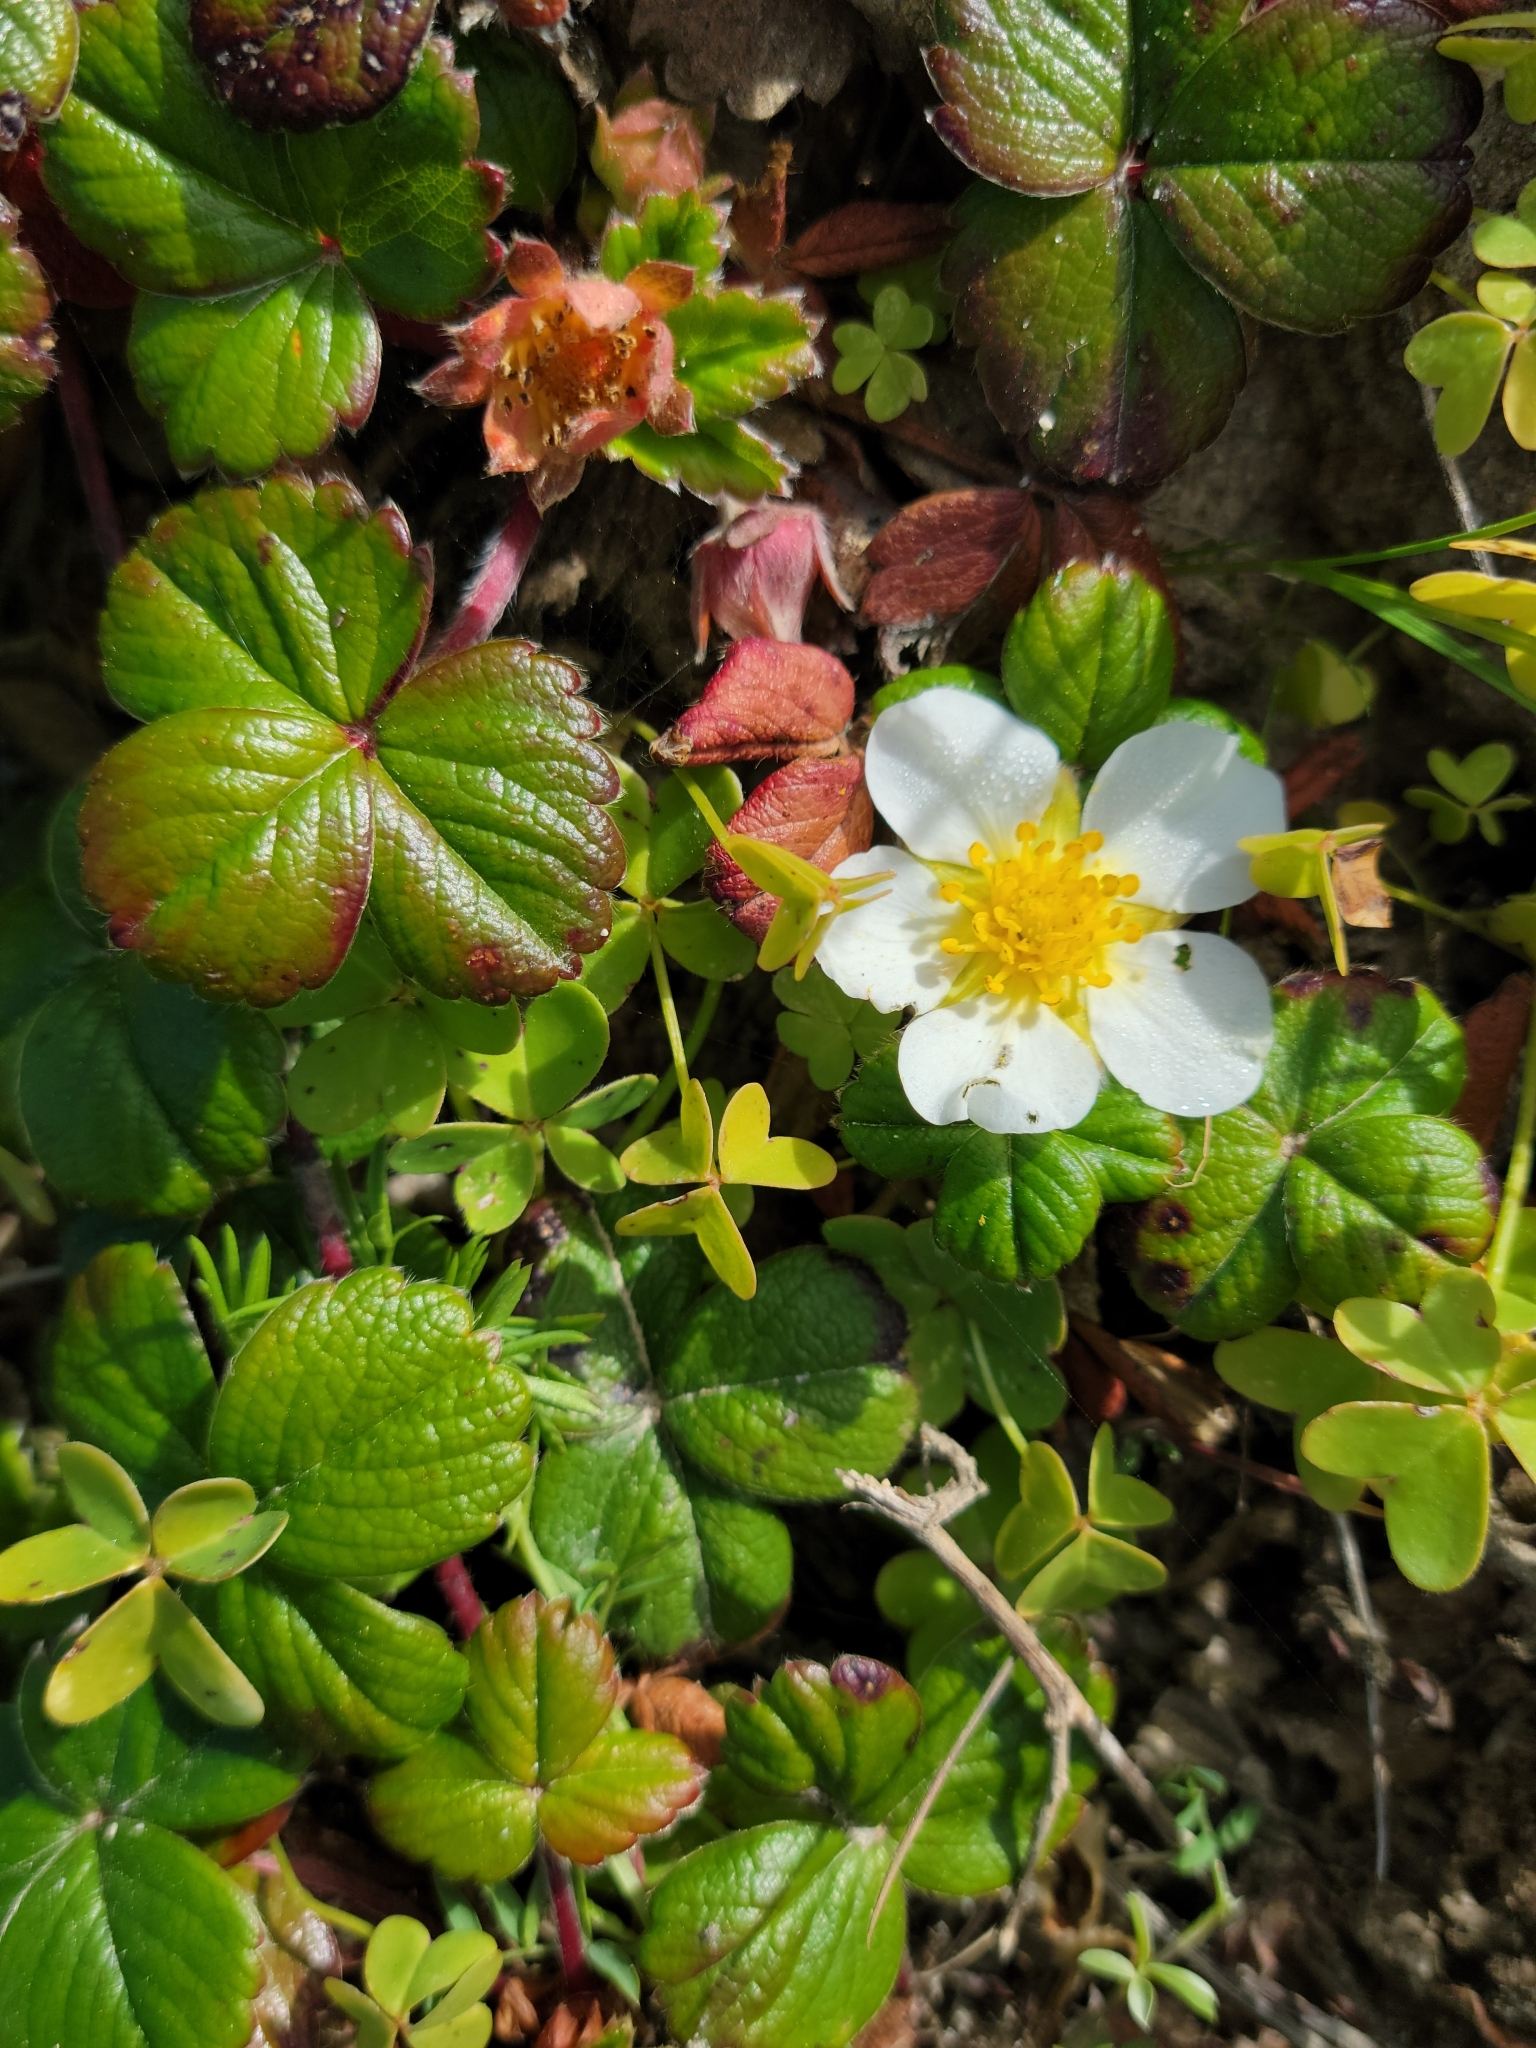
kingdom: Plantae
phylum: Tracheophyta
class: Magnoliopsida
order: Rosales
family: Rosaceae
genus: Fragaria
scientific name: Fragaria chiloensis
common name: Beach strawberry
